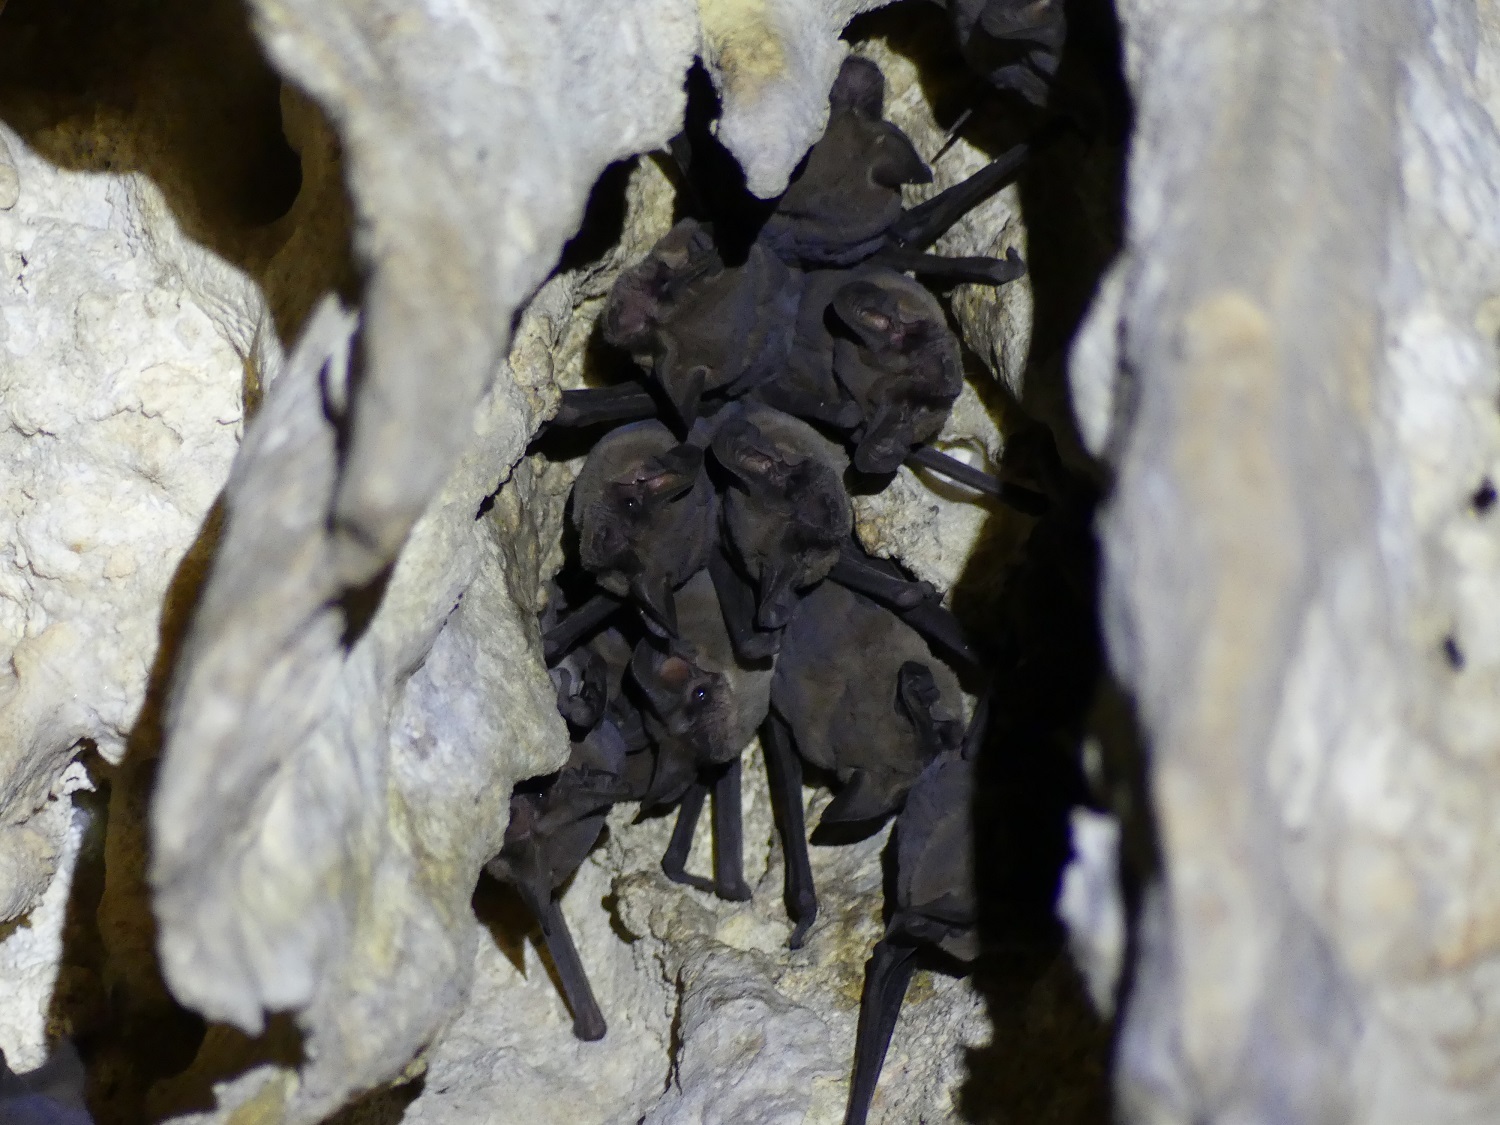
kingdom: Animalia
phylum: Chordata
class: Mammalia
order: Chiroptera
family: Molossidae
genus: Tadarida
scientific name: Tadarida brasiliensis
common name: Mexican free-tailed bat
